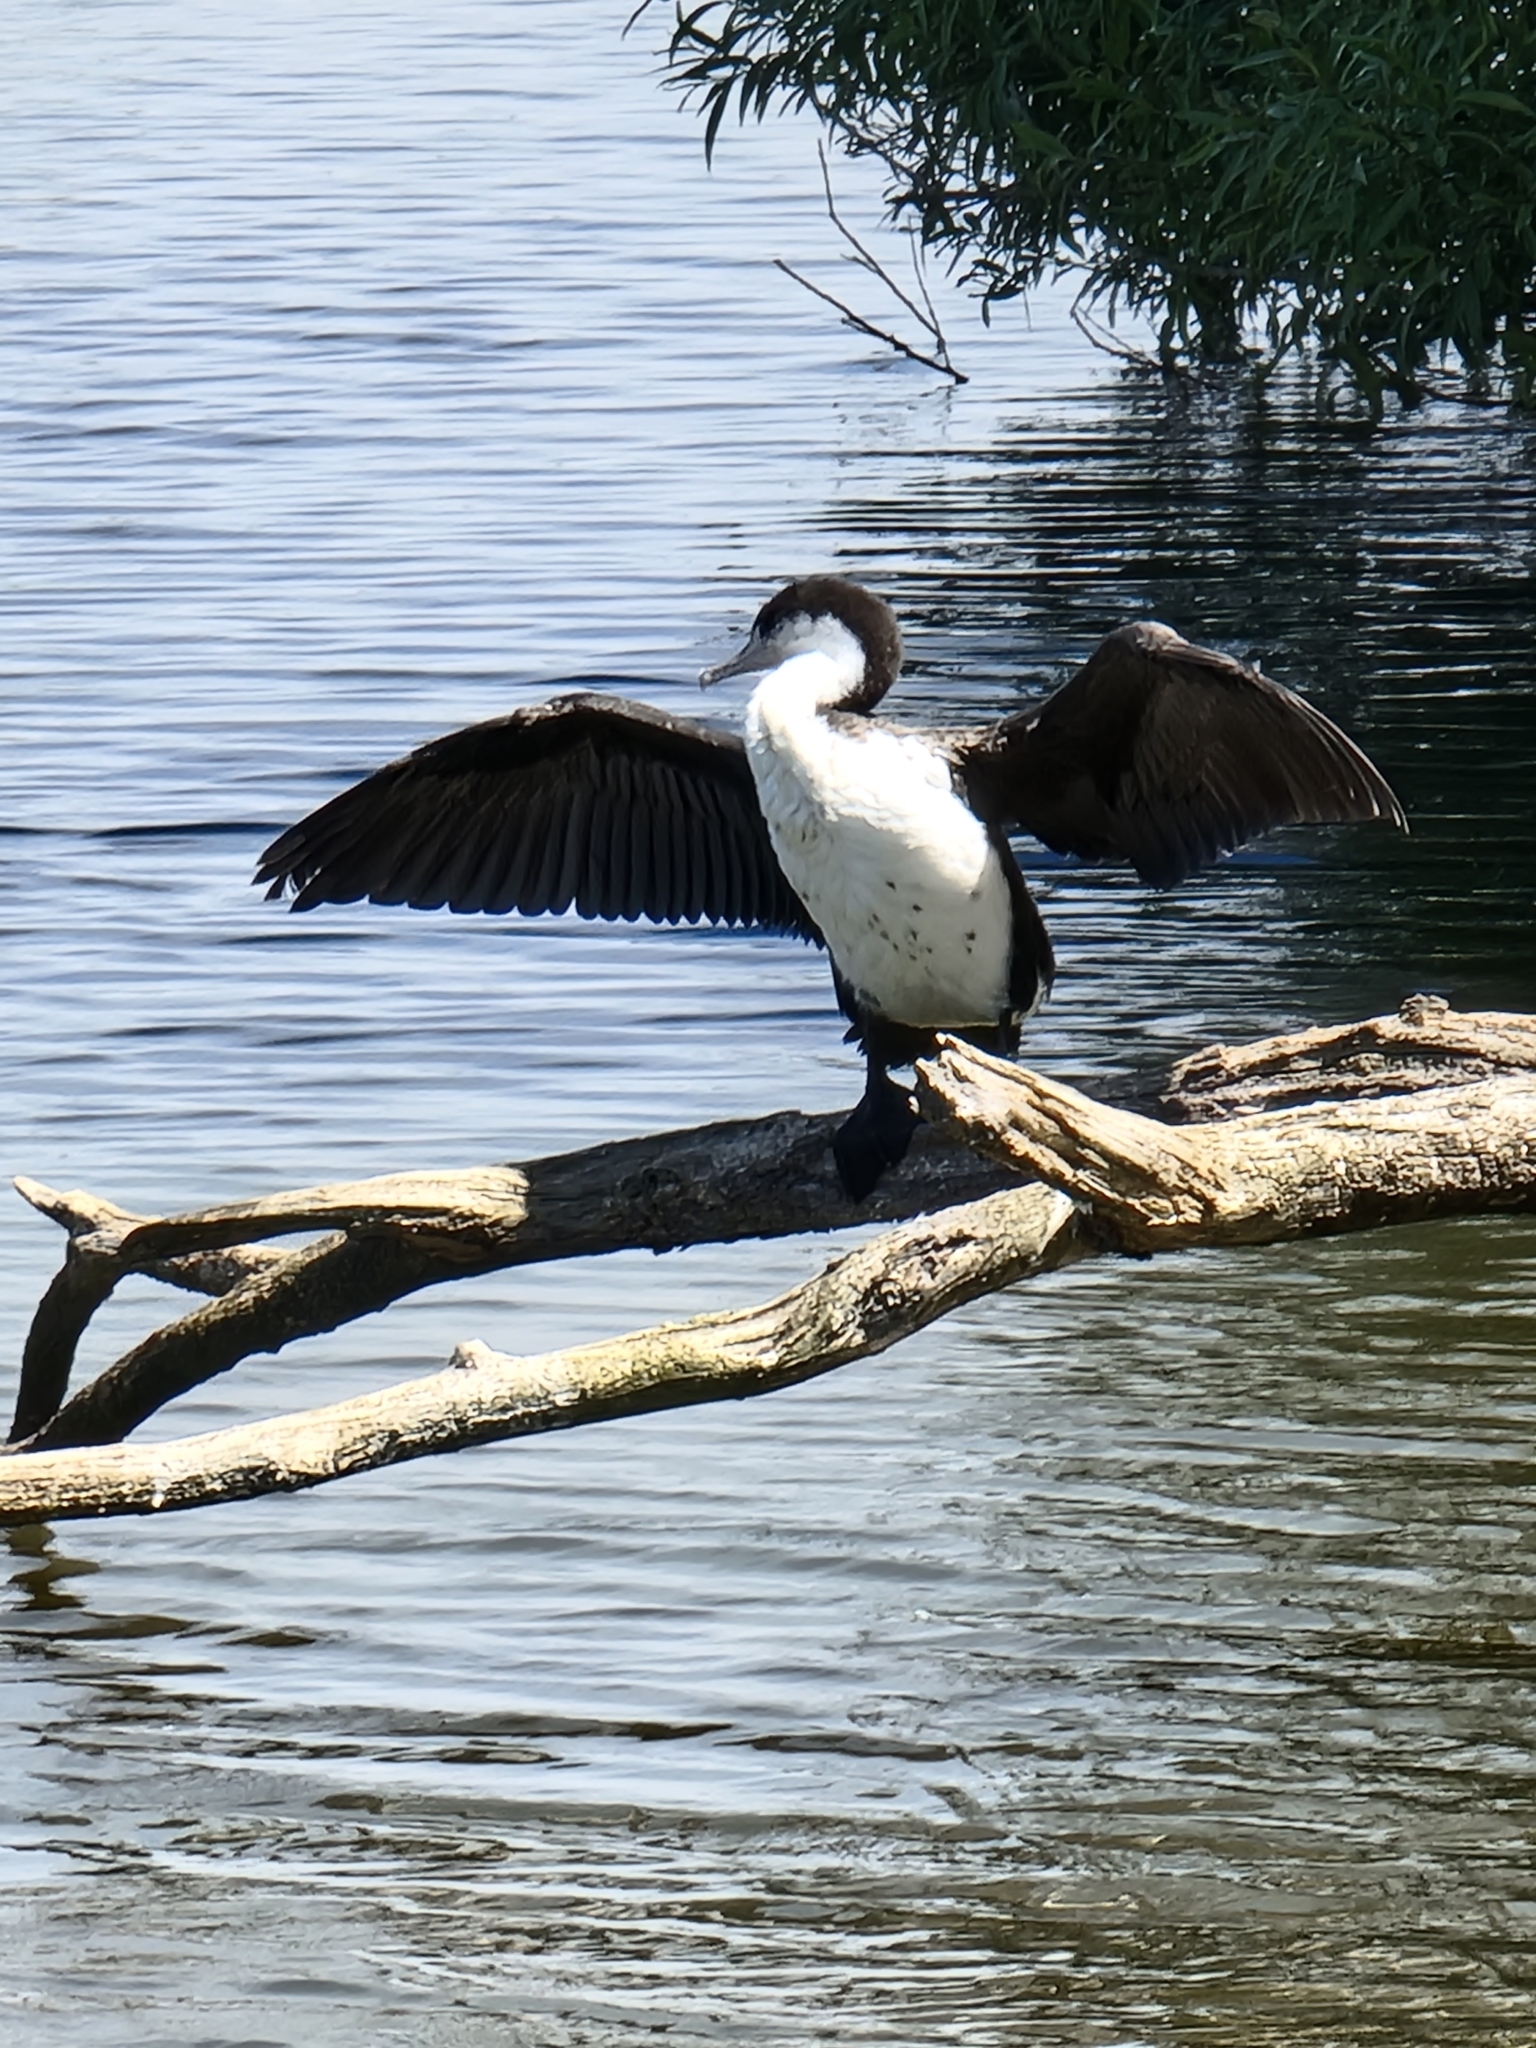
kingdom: Animalia
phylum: Chordata
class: Aves
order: Suliformes
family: Phalacrocoracidae
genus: Phalacrocorax
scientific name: Phalacrocorax varius
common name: Pied cormorant
